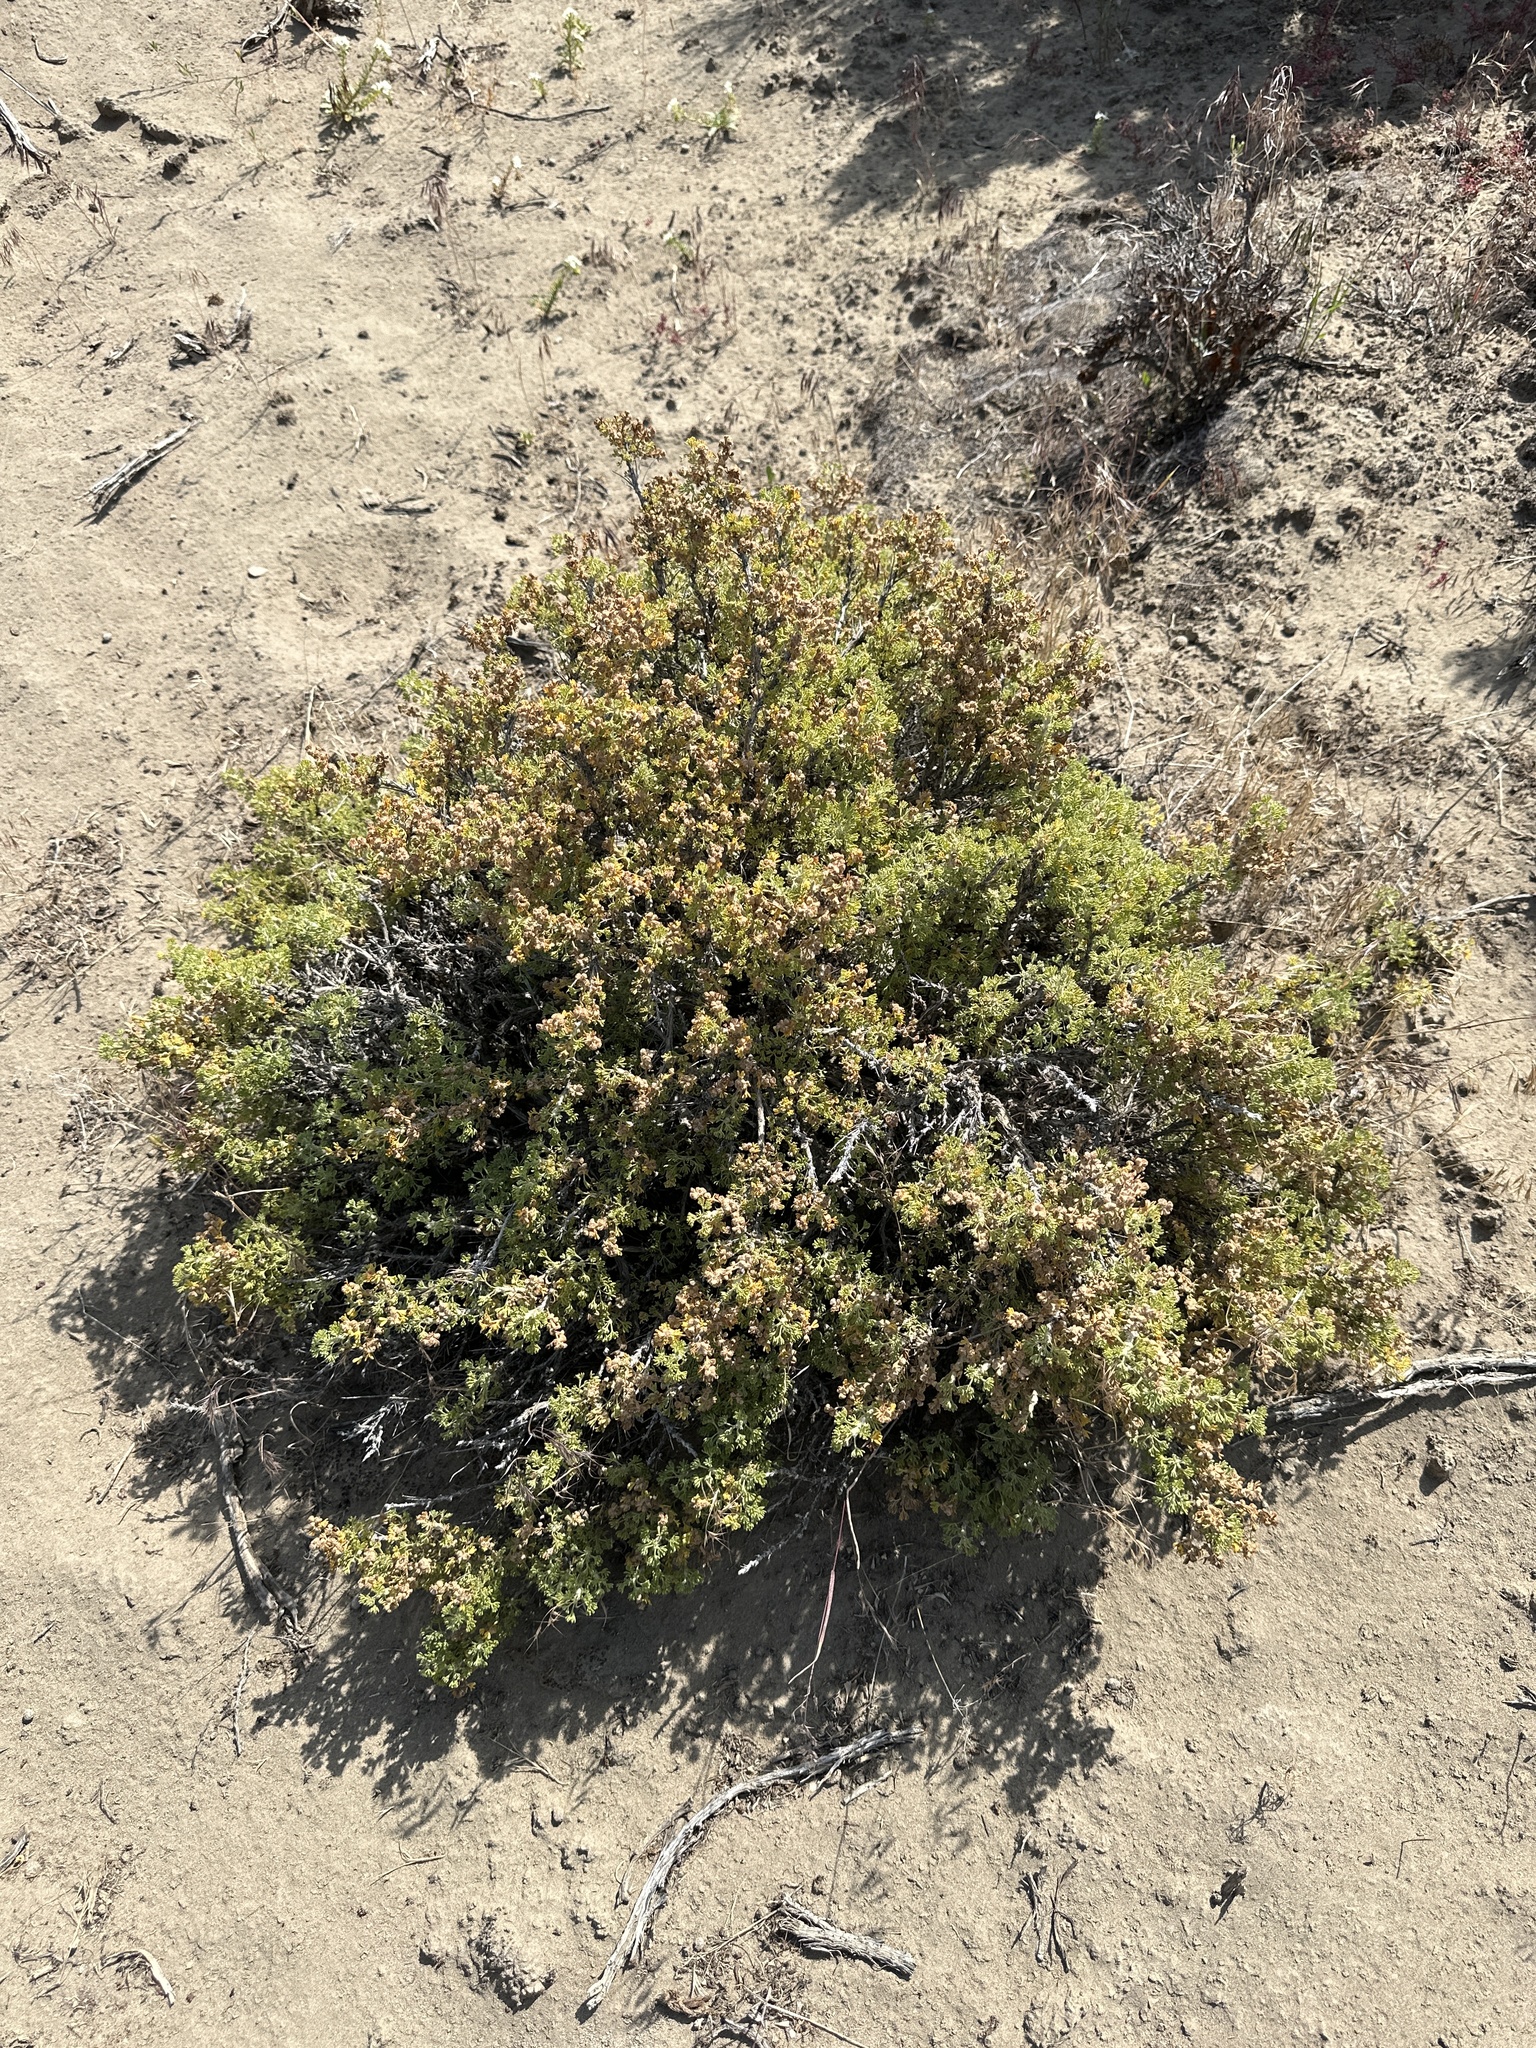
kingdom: Plantae
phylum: Tracheophyta
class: Magnoliopsida
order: Asterales
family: Asteraceae
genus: Artemisia
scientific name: Artemisia spinescens
